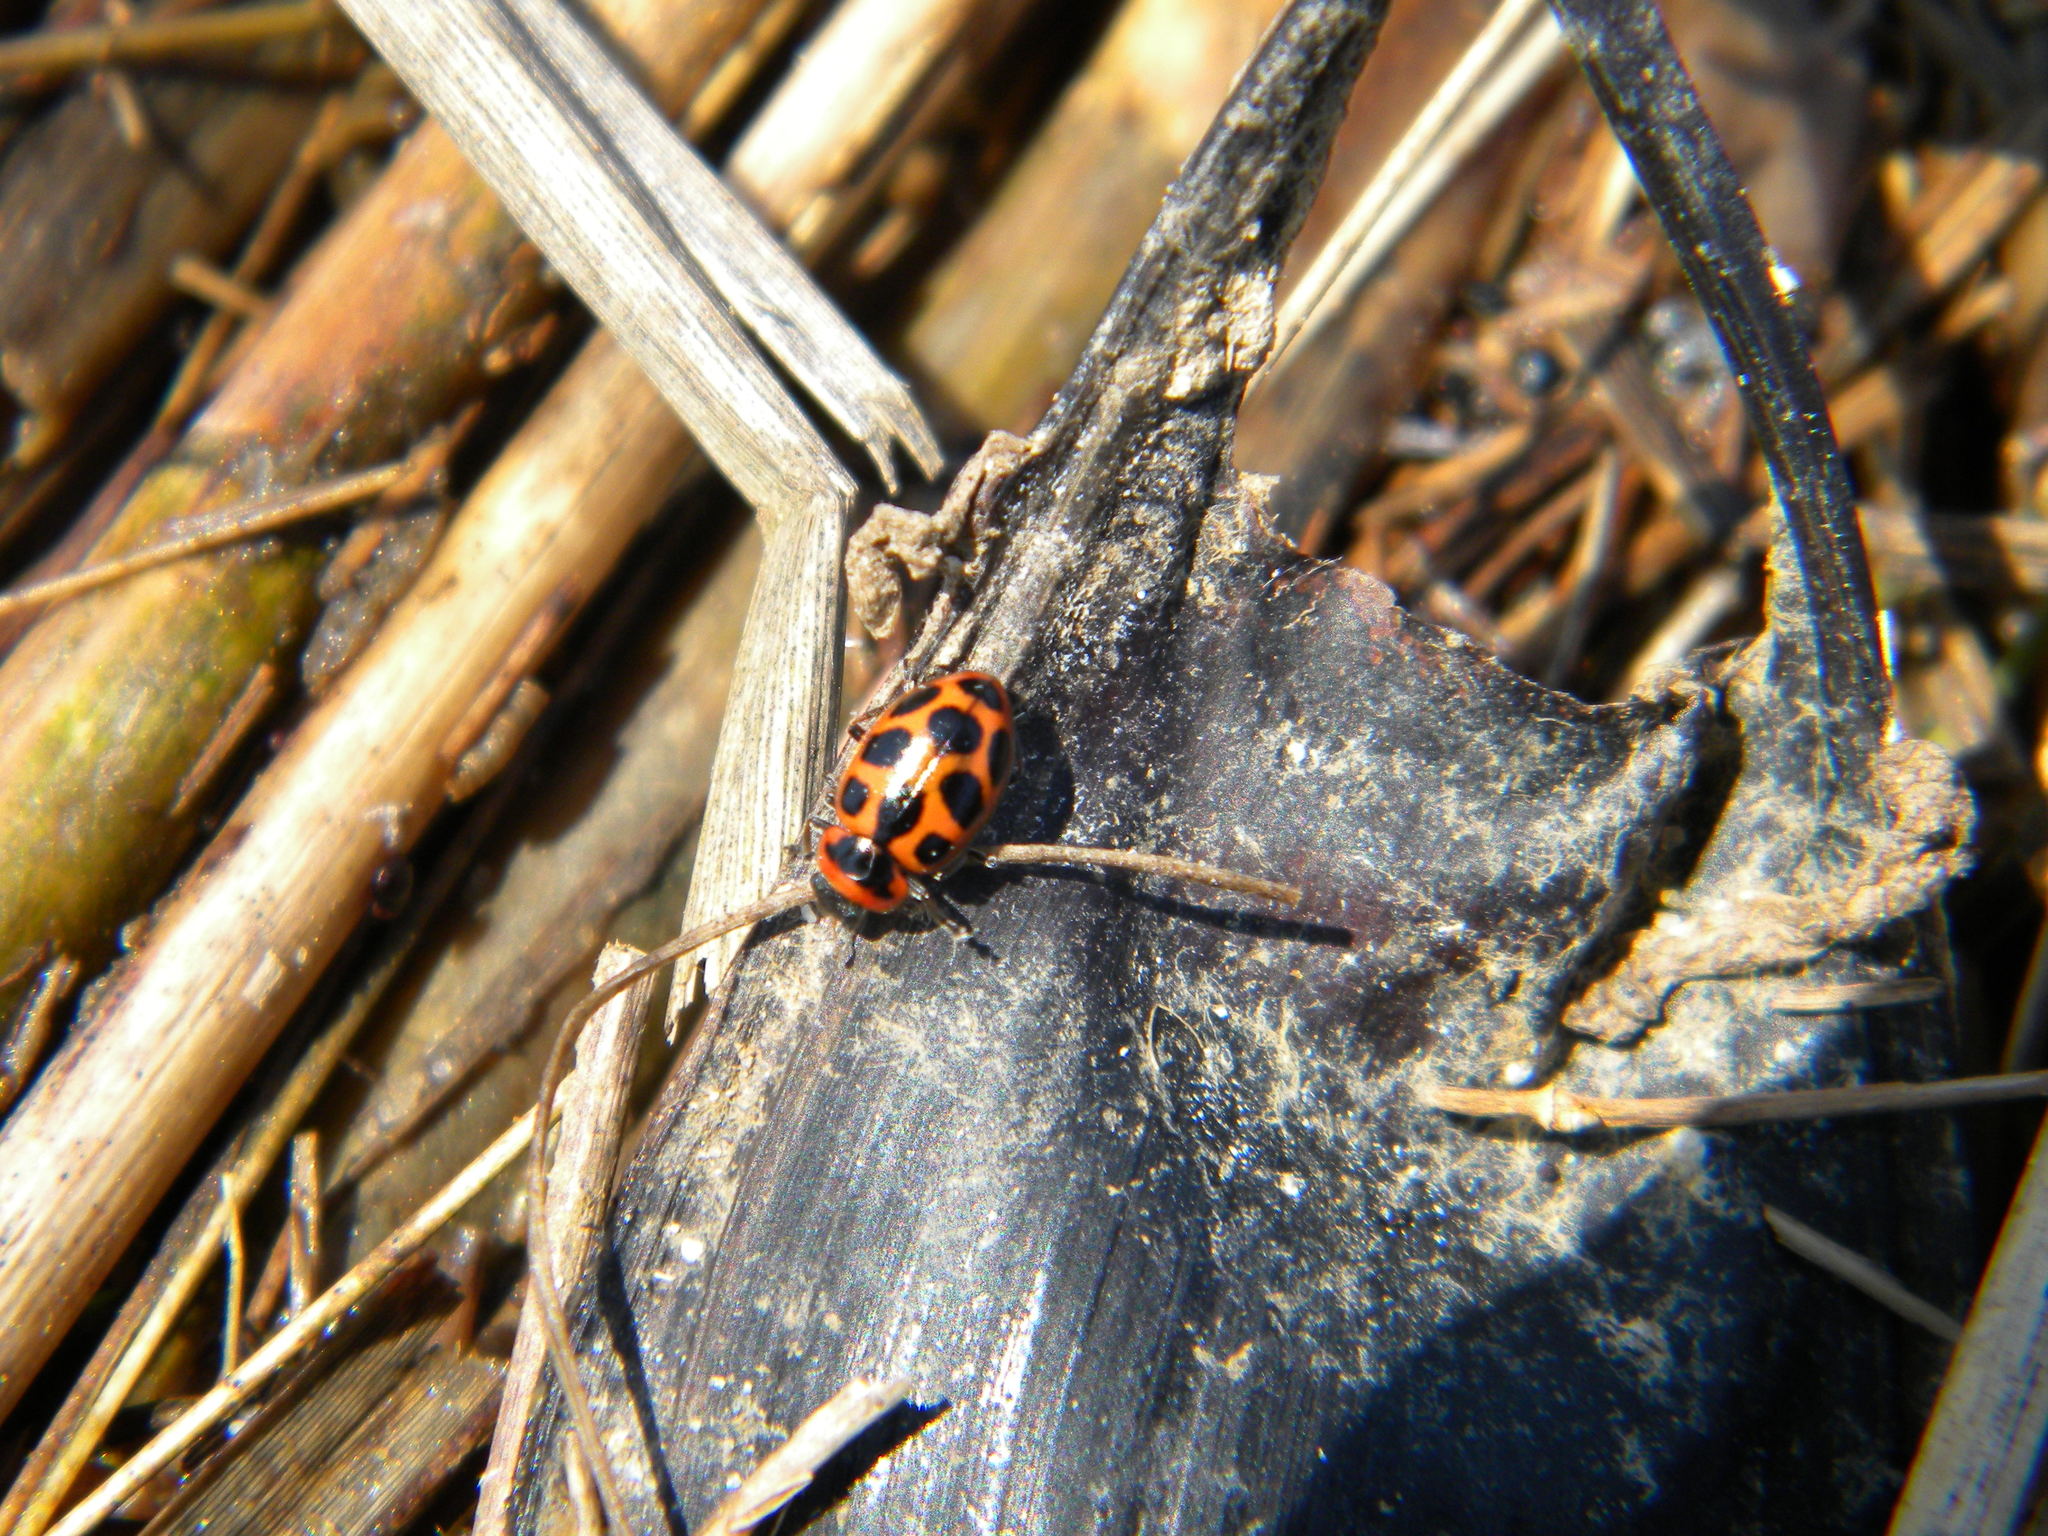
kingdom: Animalia
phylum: Arthropoda
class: Insecta
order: Coleoptera
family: Coccinellidae
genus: Naemia
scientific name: Naemia seriata
